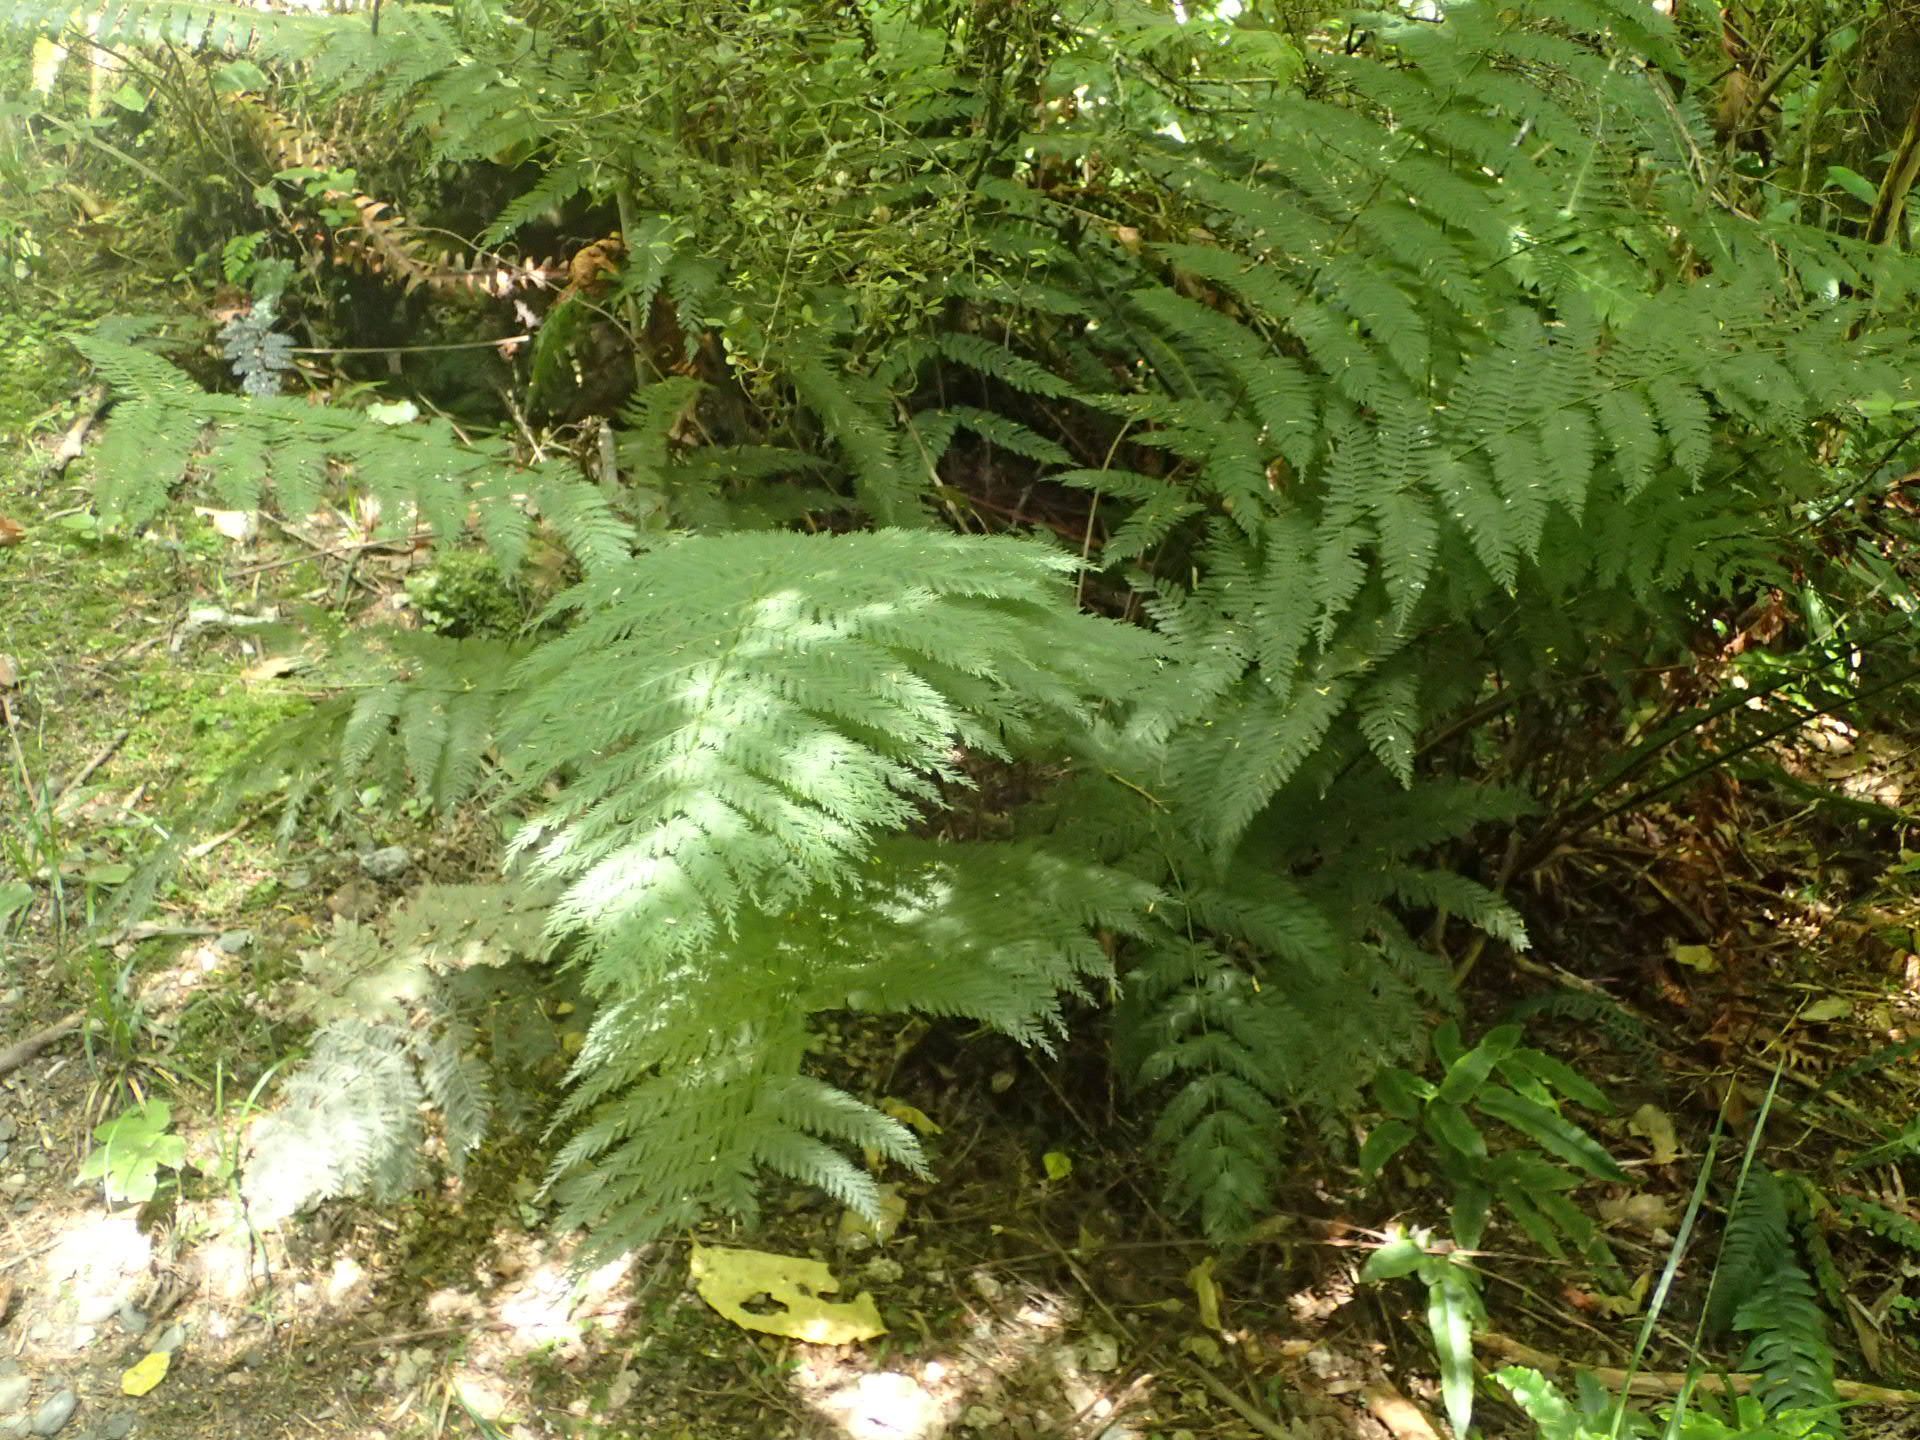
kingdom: Plantae
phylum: Tracheophyta
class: Polypodiopsida
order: Osmundales
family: Osmundaceae
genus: Leptopteris
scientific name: Leptopteris hymenophylloides
